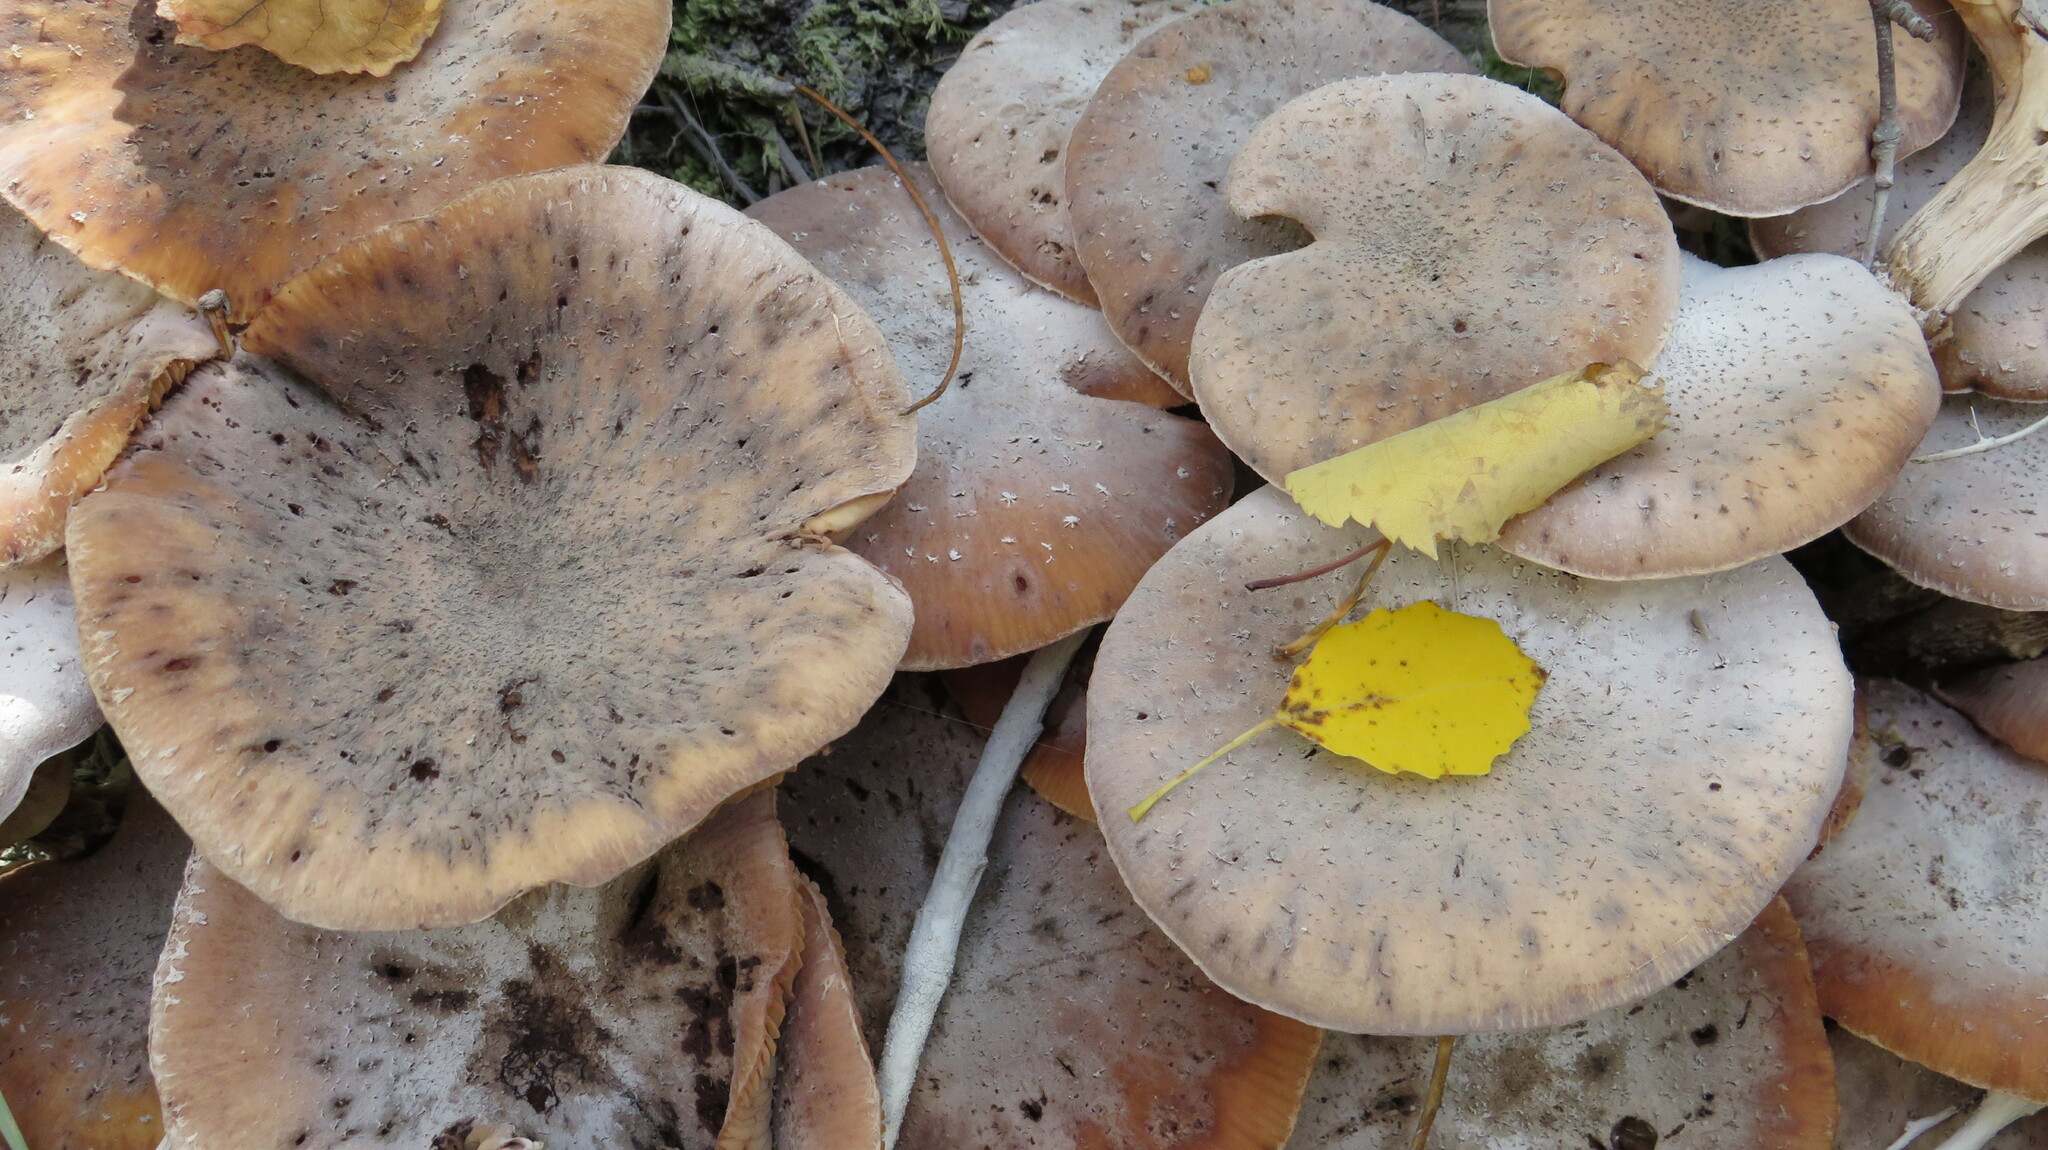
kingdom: Fungi
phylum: Basidiomycota
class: Agaricomycetes
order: Agaricales
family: Physalacriaceae
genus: Armillaria
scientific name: Armillaria borealis
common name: Northern honey fungus
